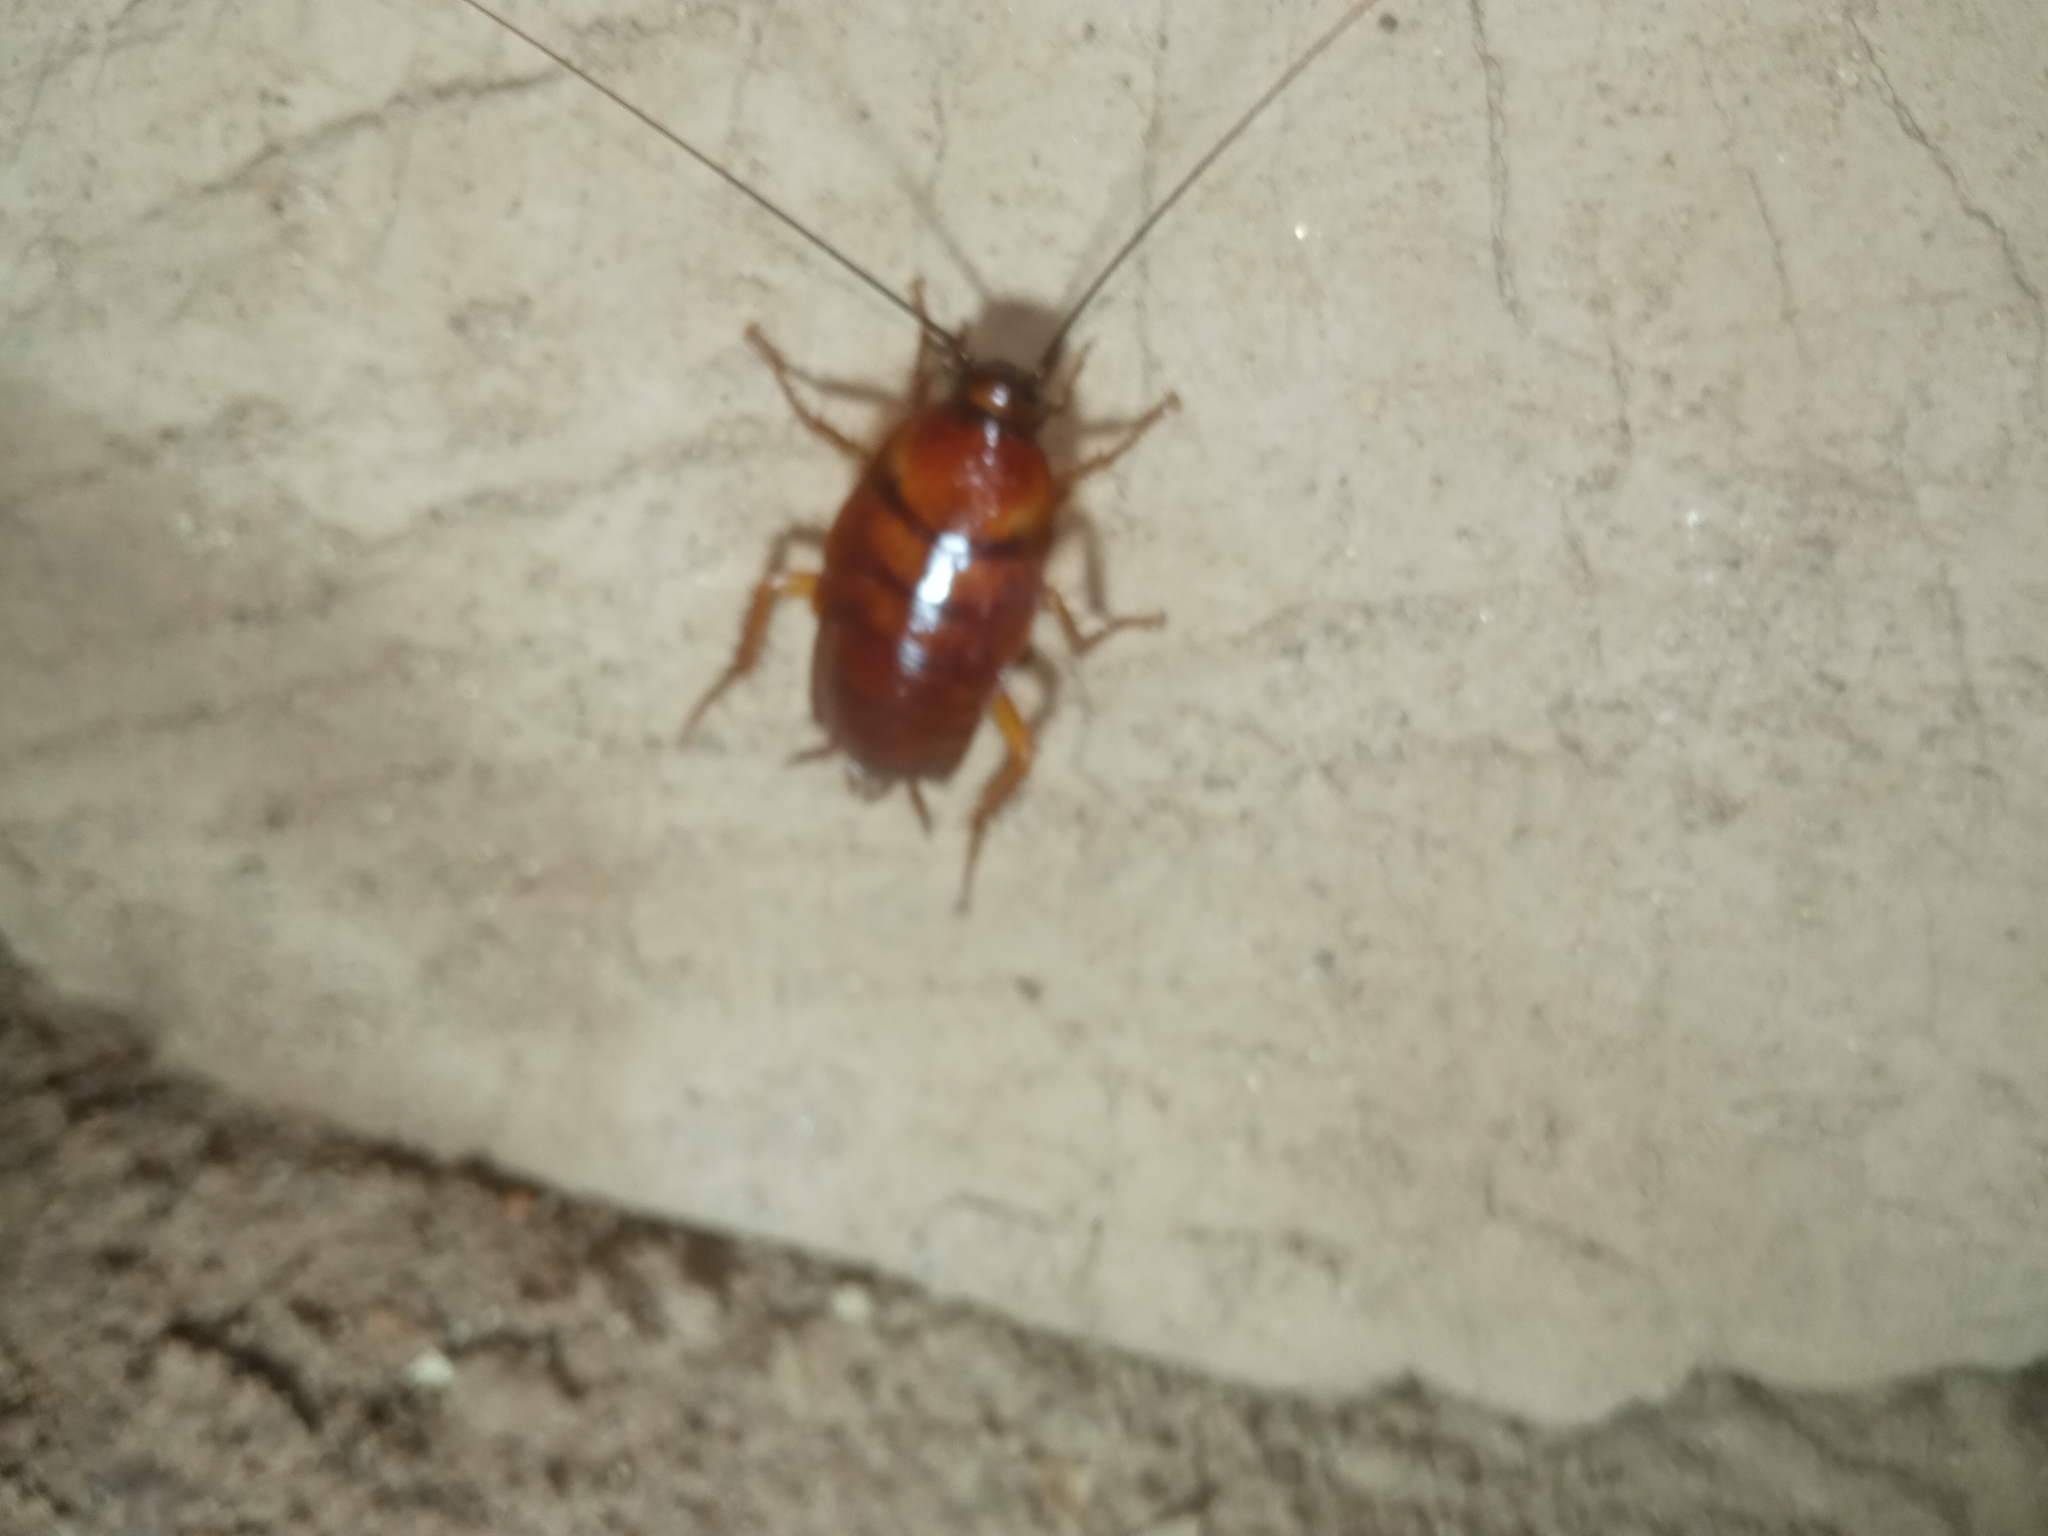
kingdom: Animalia
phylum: Arthropoda
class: Insecta
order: Blattodea
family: Blattidae
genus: Periplaneta
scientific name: Periplaneta americana
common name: American cockroach
